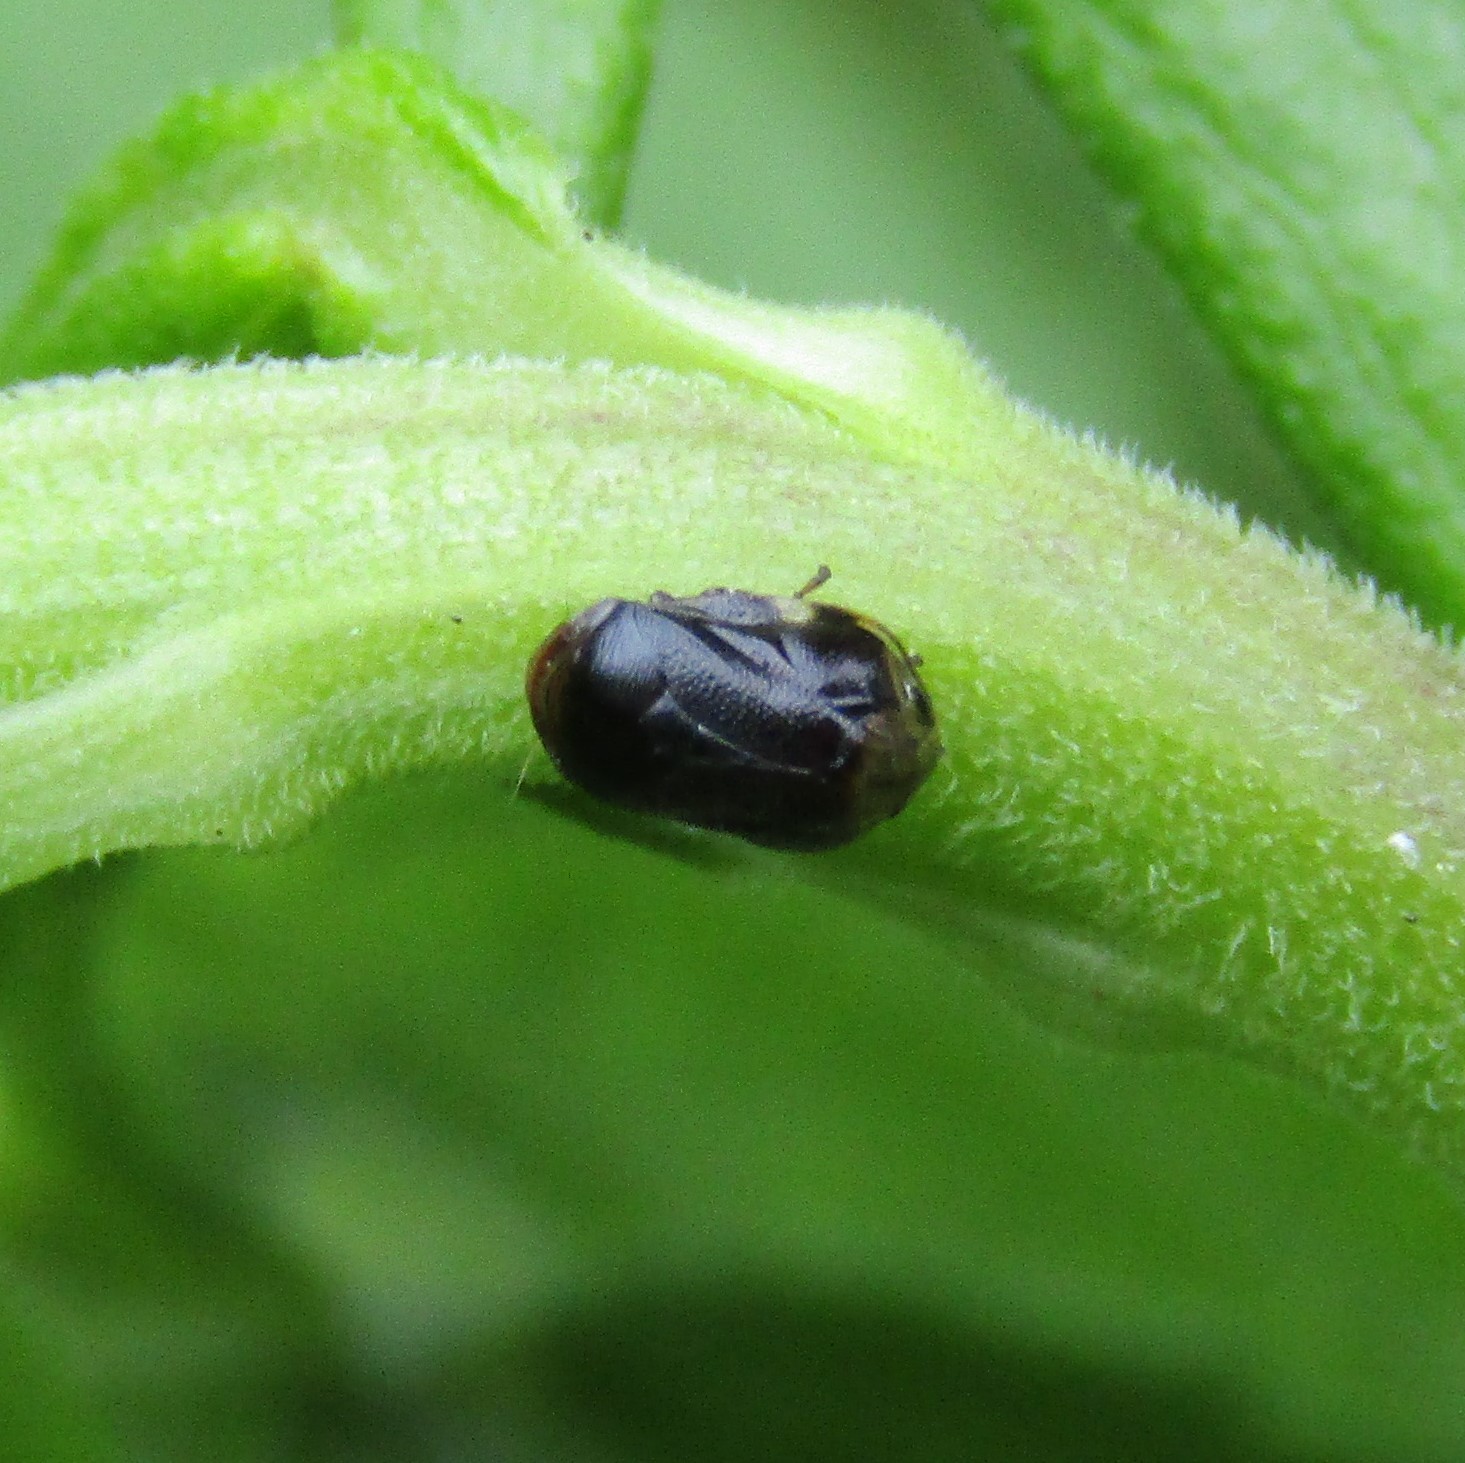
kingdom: Animalia
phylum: Arthropoda
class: Insecta
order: Hemiptera
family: Clastopteridae
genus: Clastoptera
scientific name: Clastoptera xanthocephala
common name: Sunflower spittlebug
